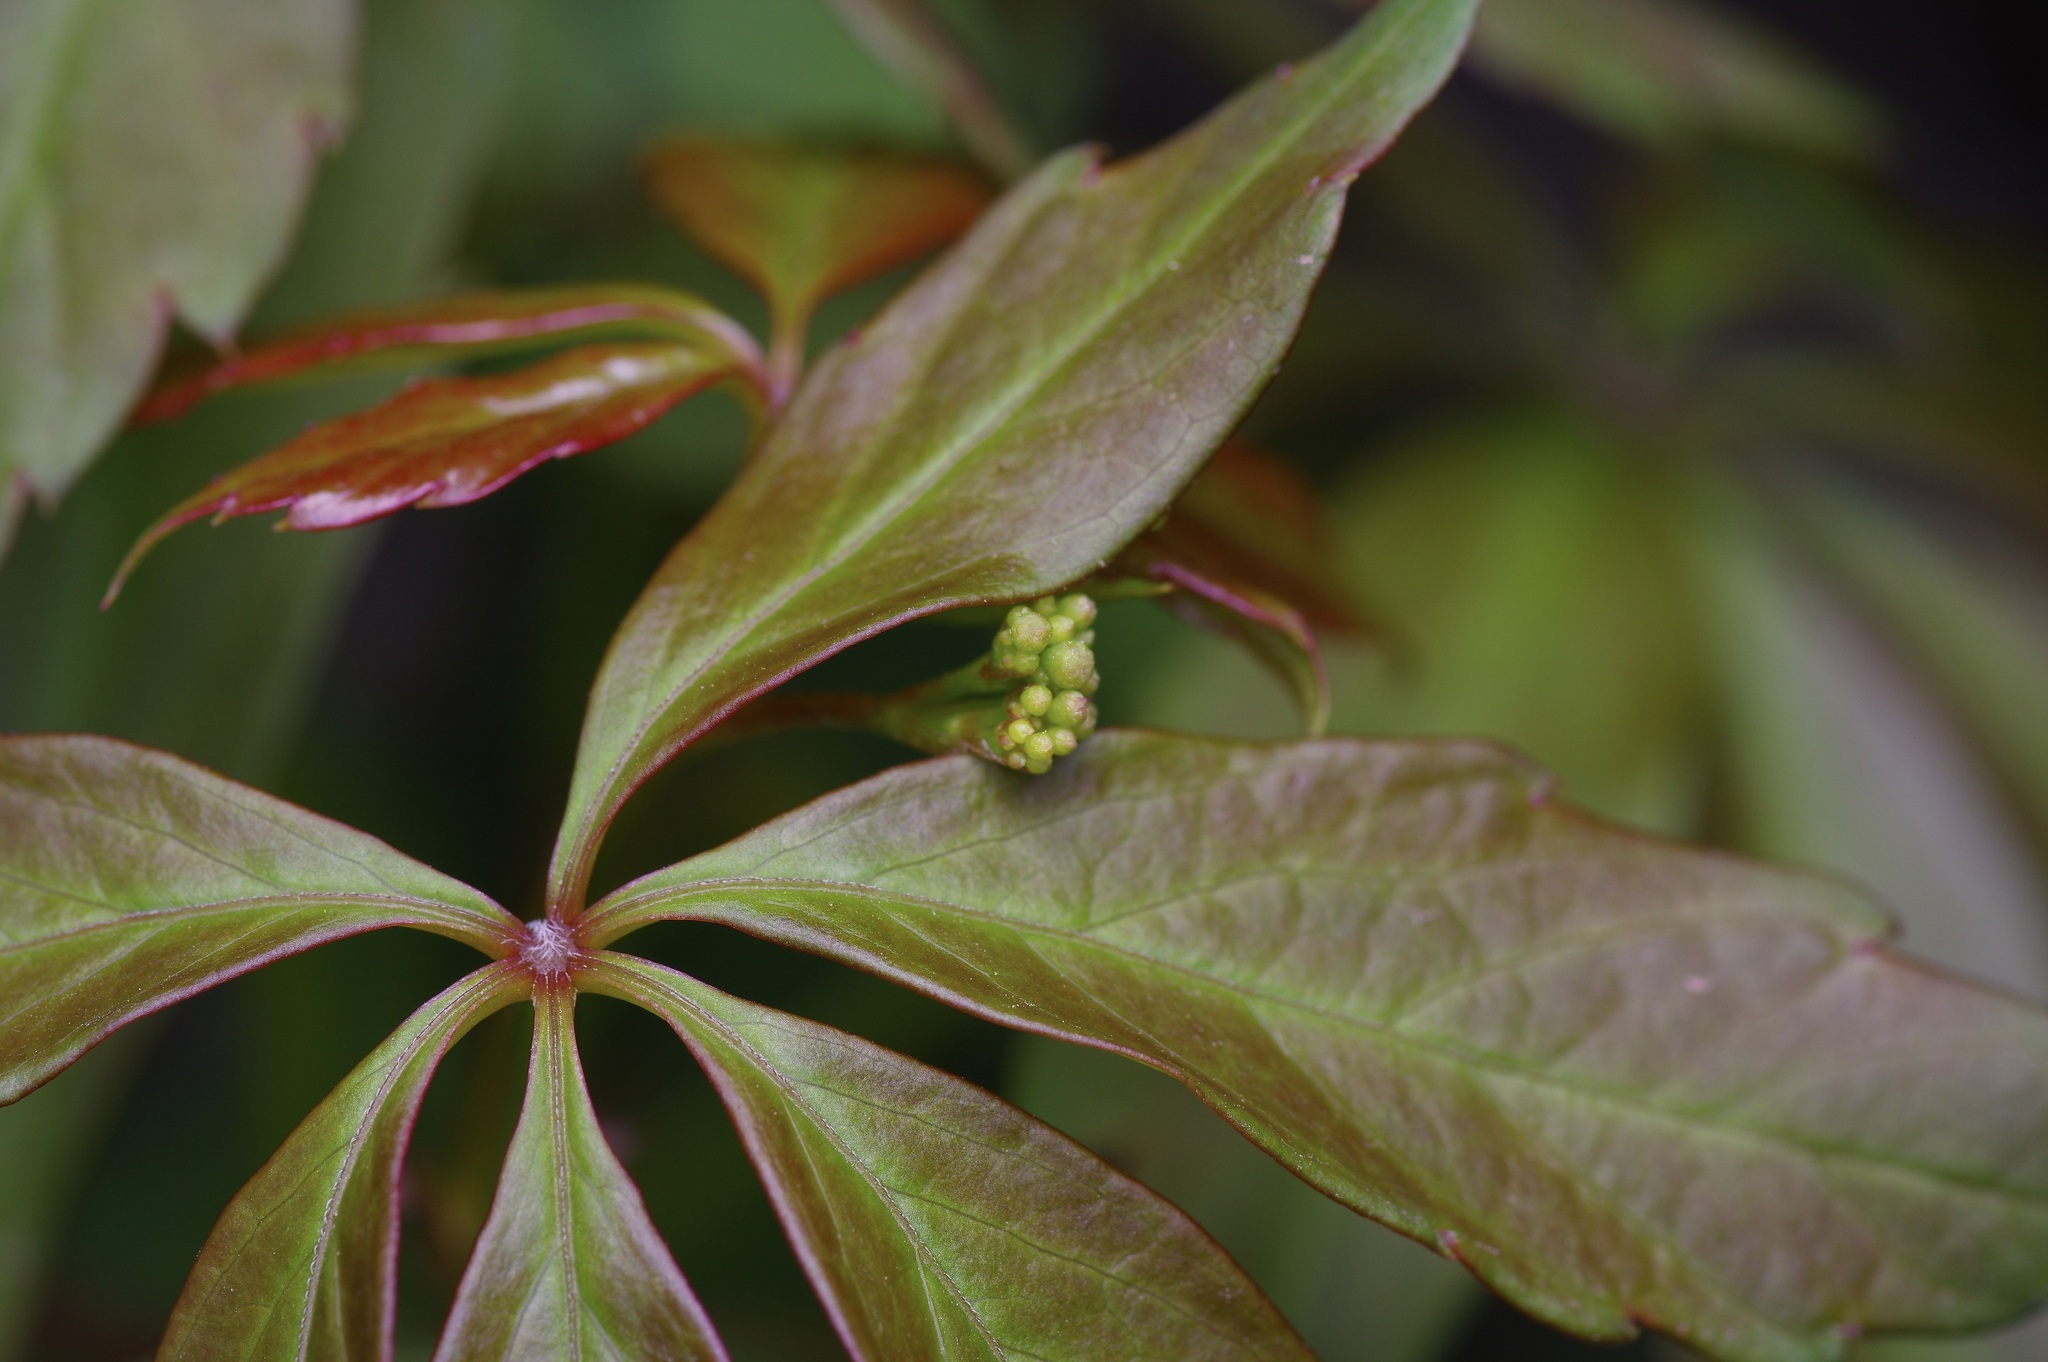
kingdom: Plantae
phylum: Tracheophyta
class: Magnoliopsida
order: Vitales
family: Vitaceae
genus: Parthenocissus
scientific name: Parthenocissus heptaphylla
